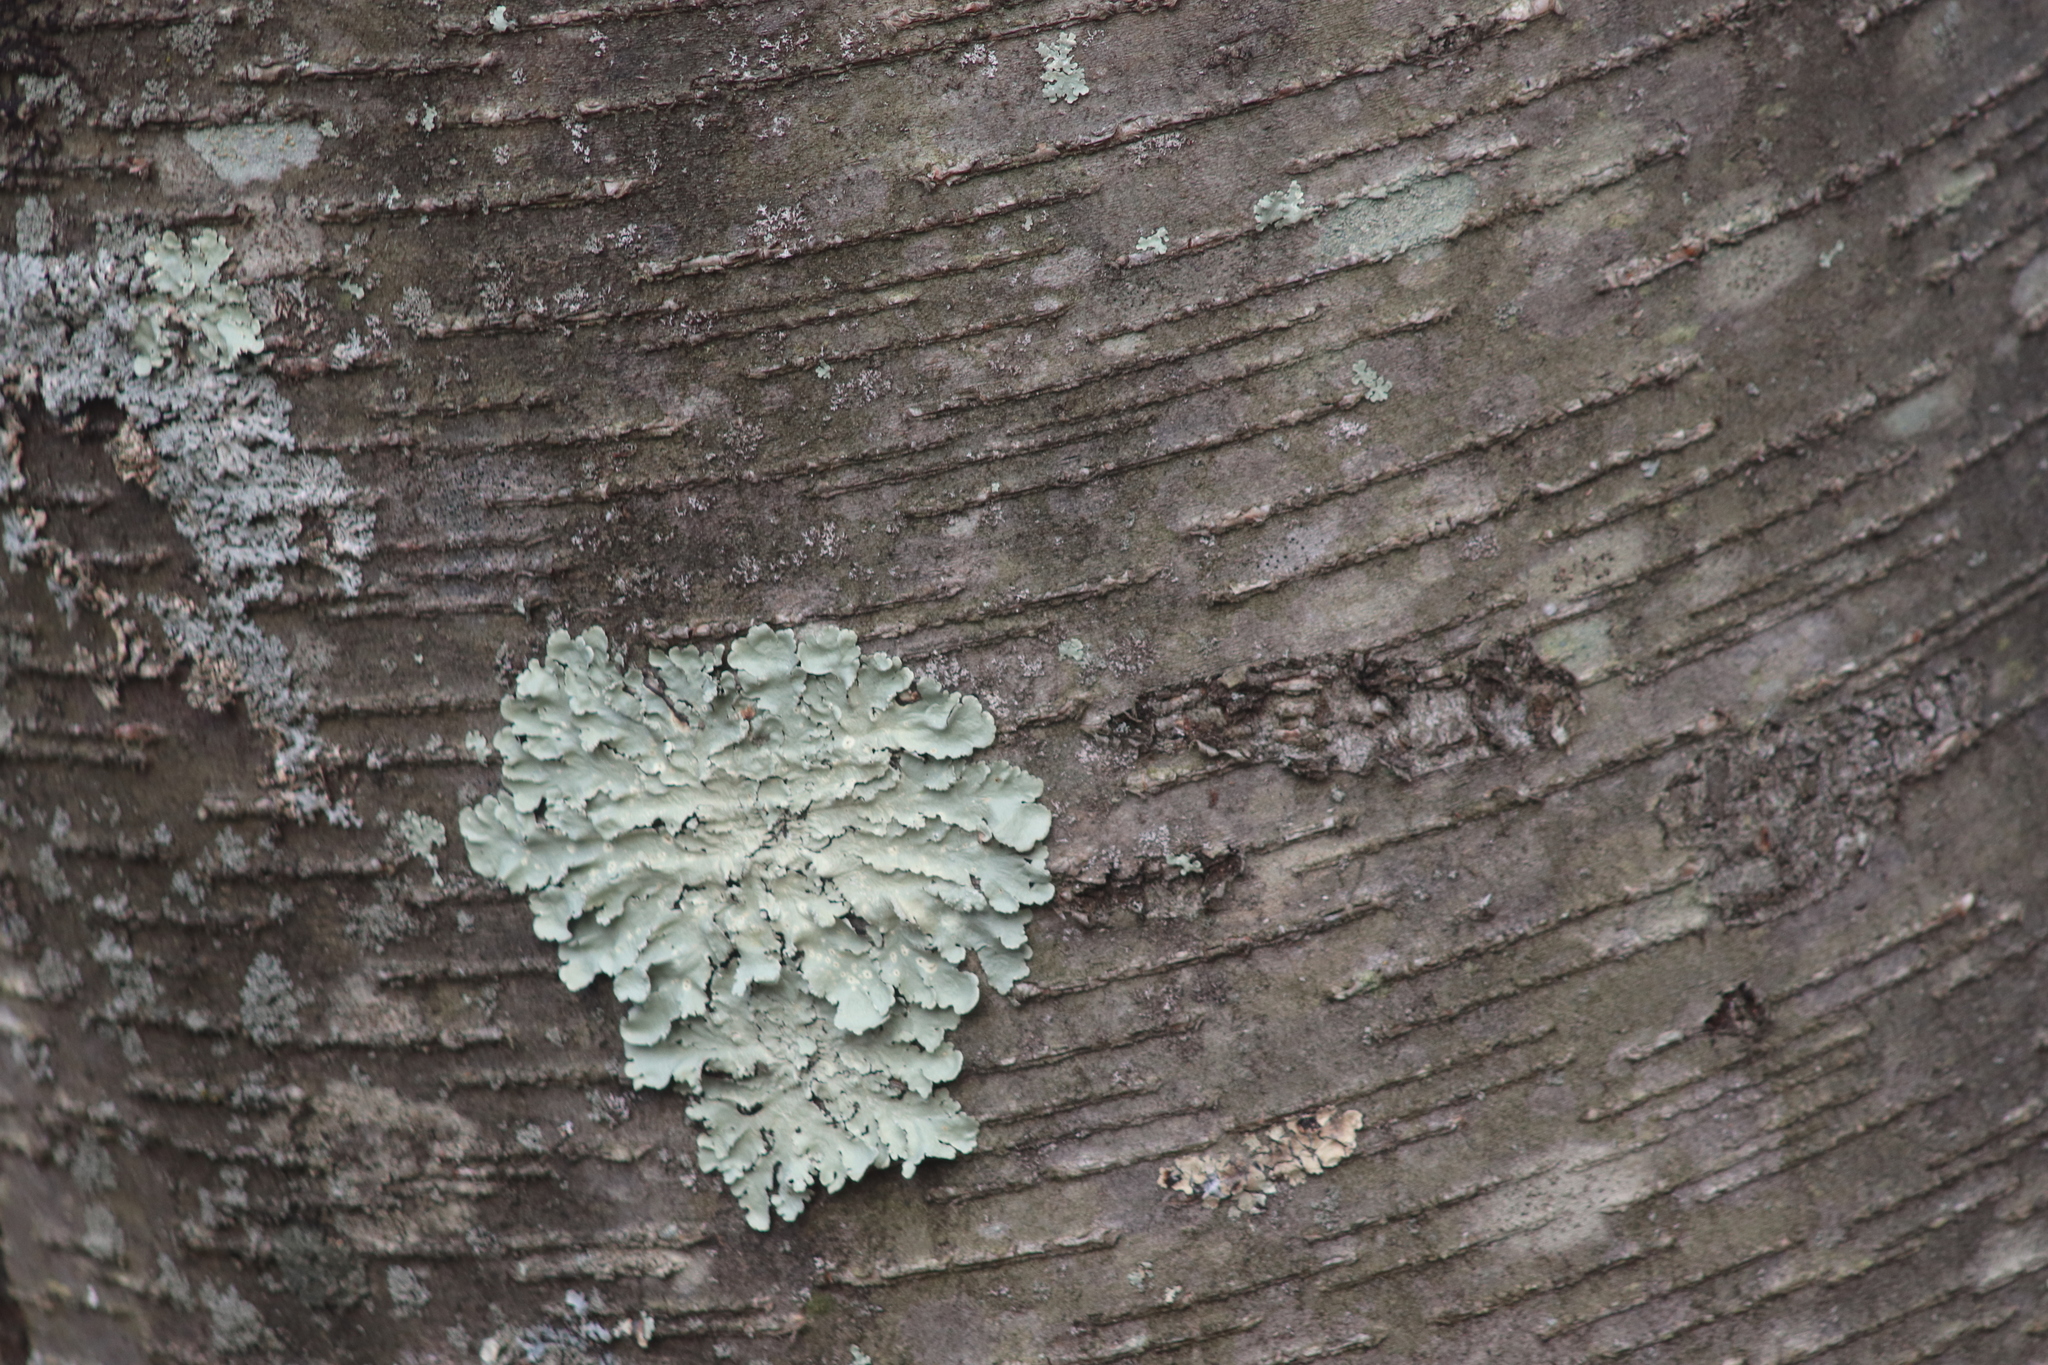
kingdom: Plantae
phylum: Tracheophyta
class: Magnoliopsida
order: Fagales
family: Betulaceae
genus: Betula
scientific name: Betula lenta
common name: Black birch
